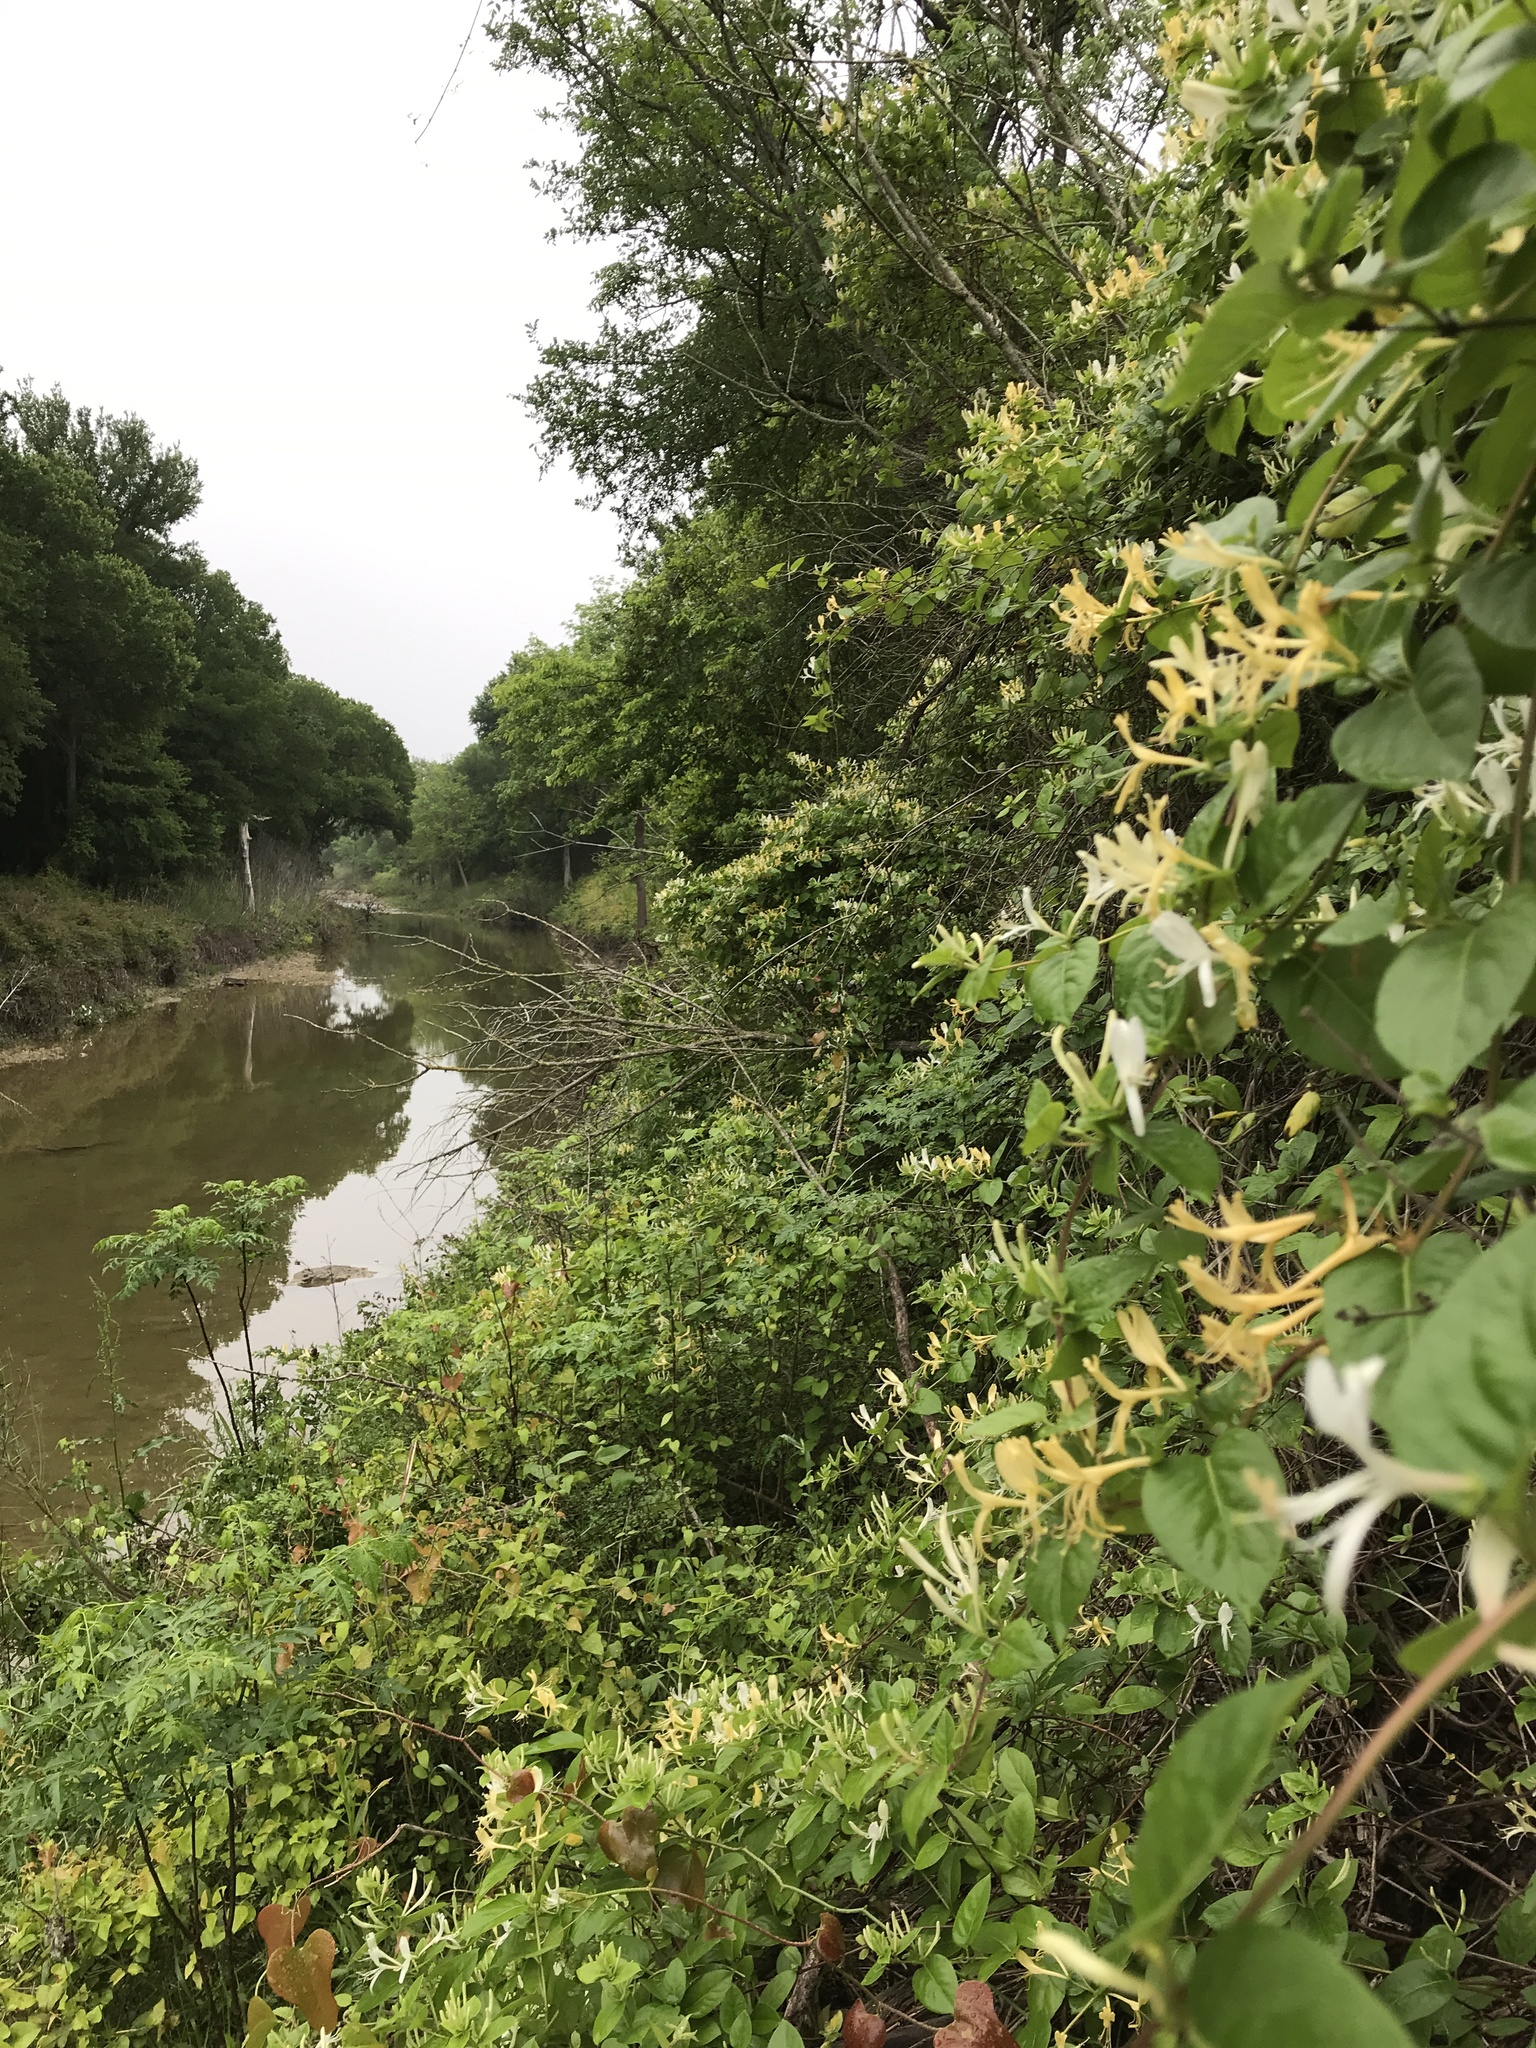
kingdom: Plantae
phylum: Tracheophyta
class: Magnoliopsida
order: Dipsacales
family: Caprifoliaceae
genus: Lonicera
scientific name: Lonicera japonica
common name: Japanese honeysuckle
